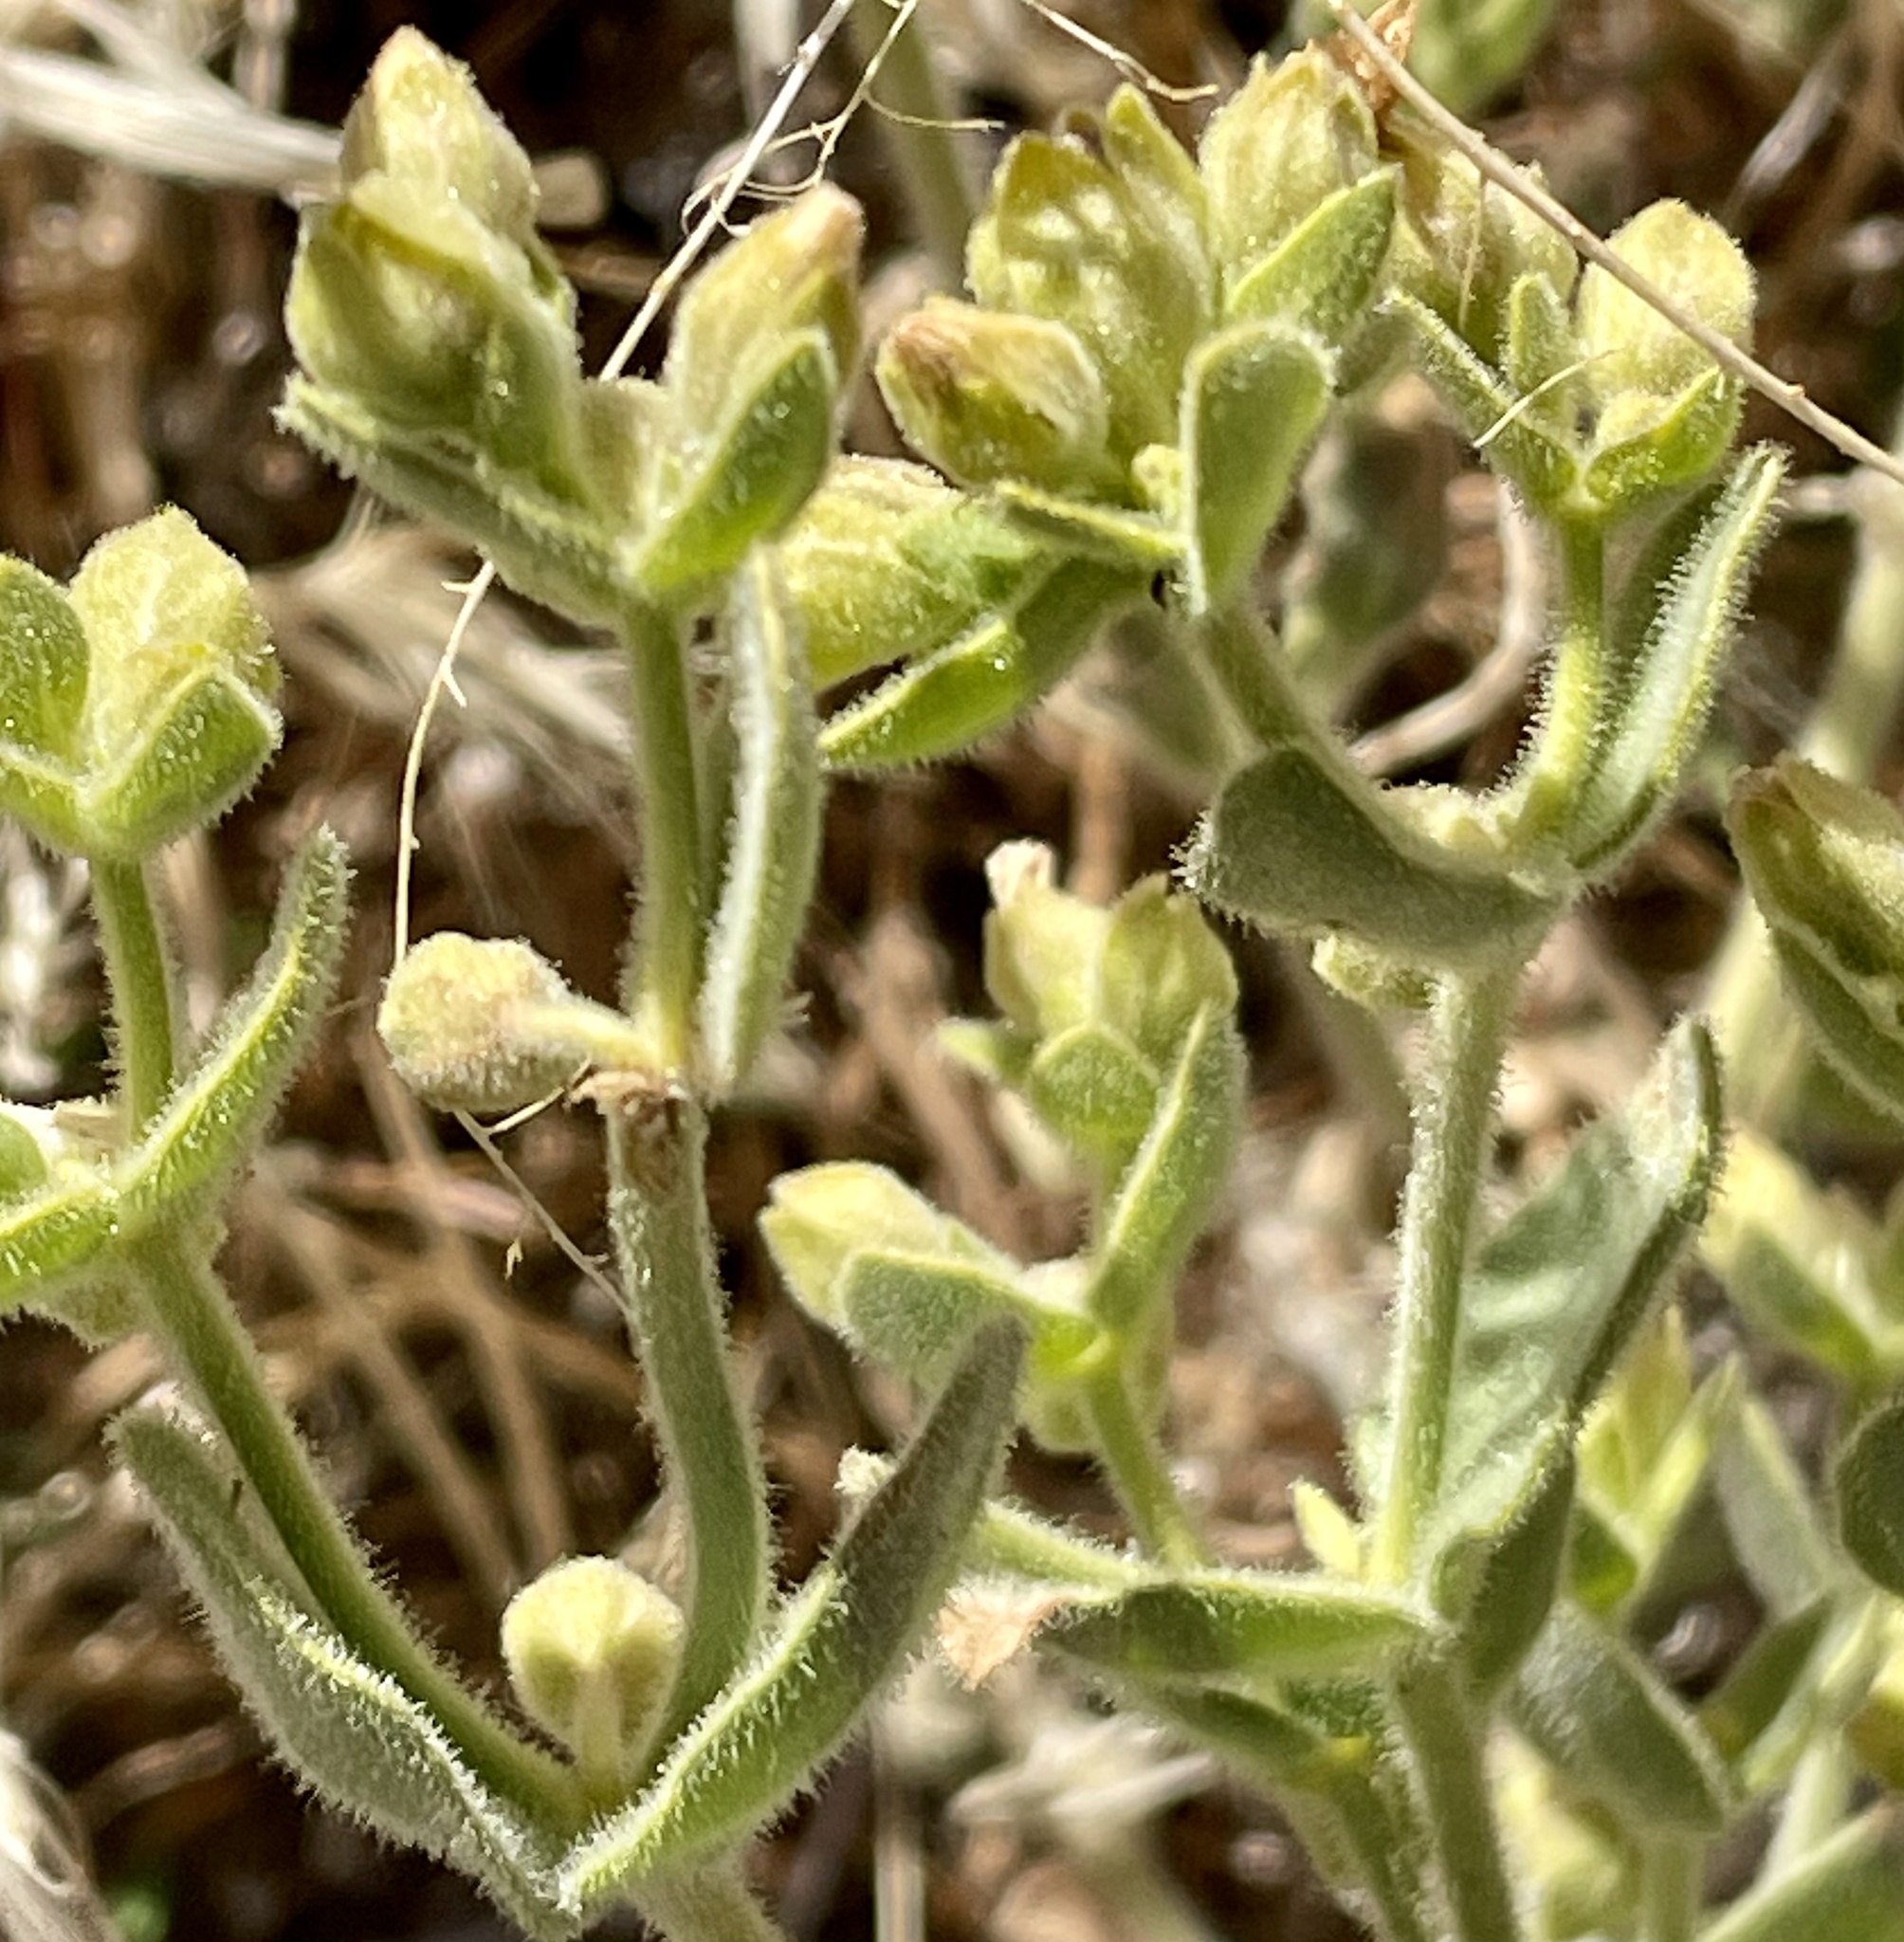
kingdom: Plantae
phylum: Tracheophyta
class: Magnoliopsida
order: Caryophyllales
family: Nyctaginaceae
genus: Mirabilis
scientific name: Mirabilis laevis
